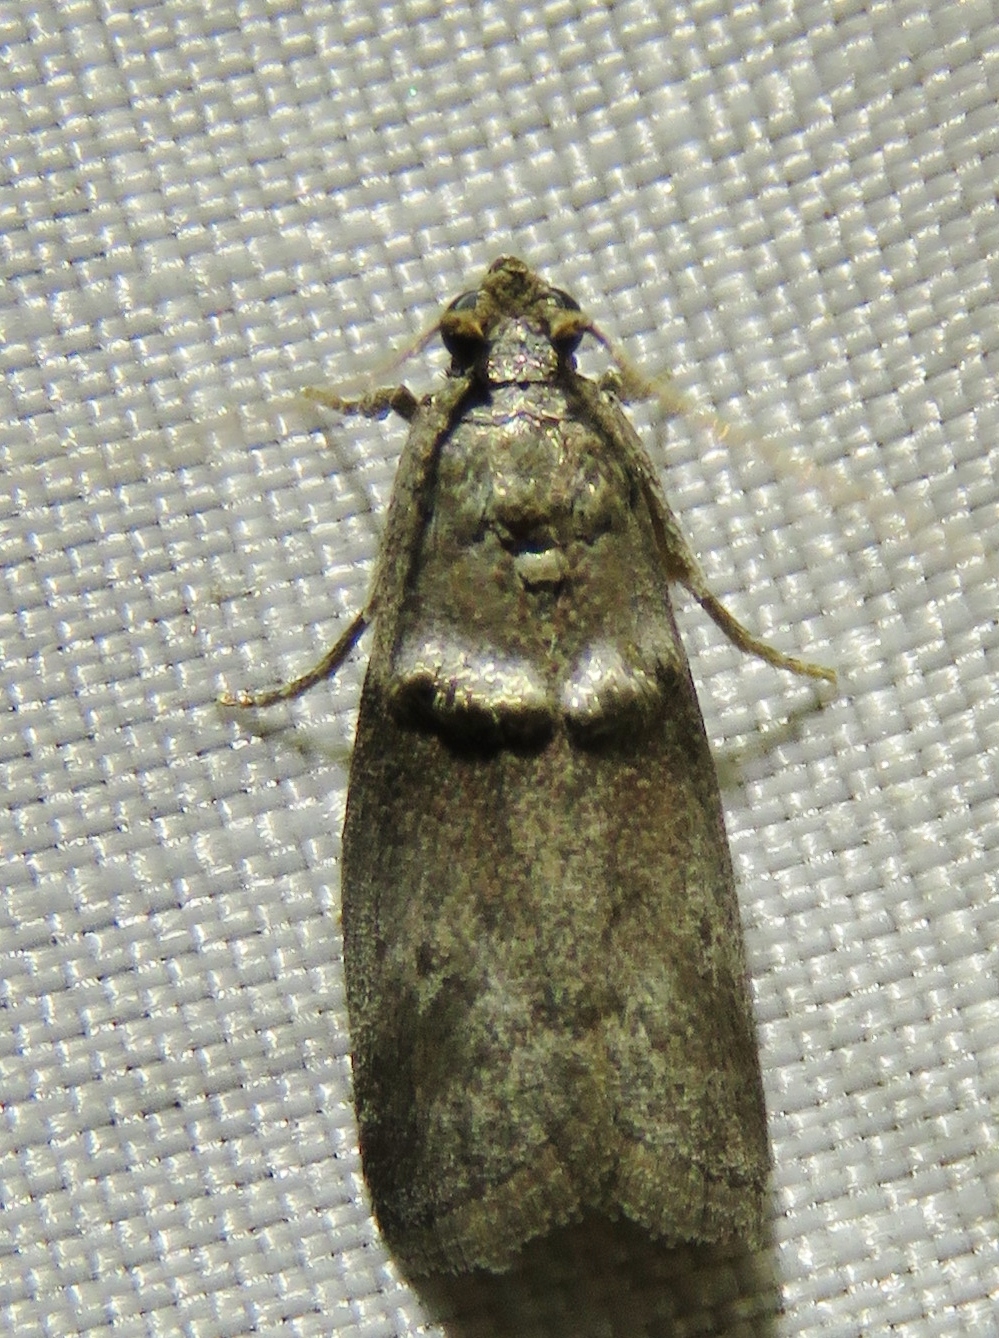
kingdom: Animalia
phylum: Arthropoda
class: Insecta
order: Lepidoptera
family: Pyralidae
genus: Acrobasis
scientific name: Acrobasis texana
